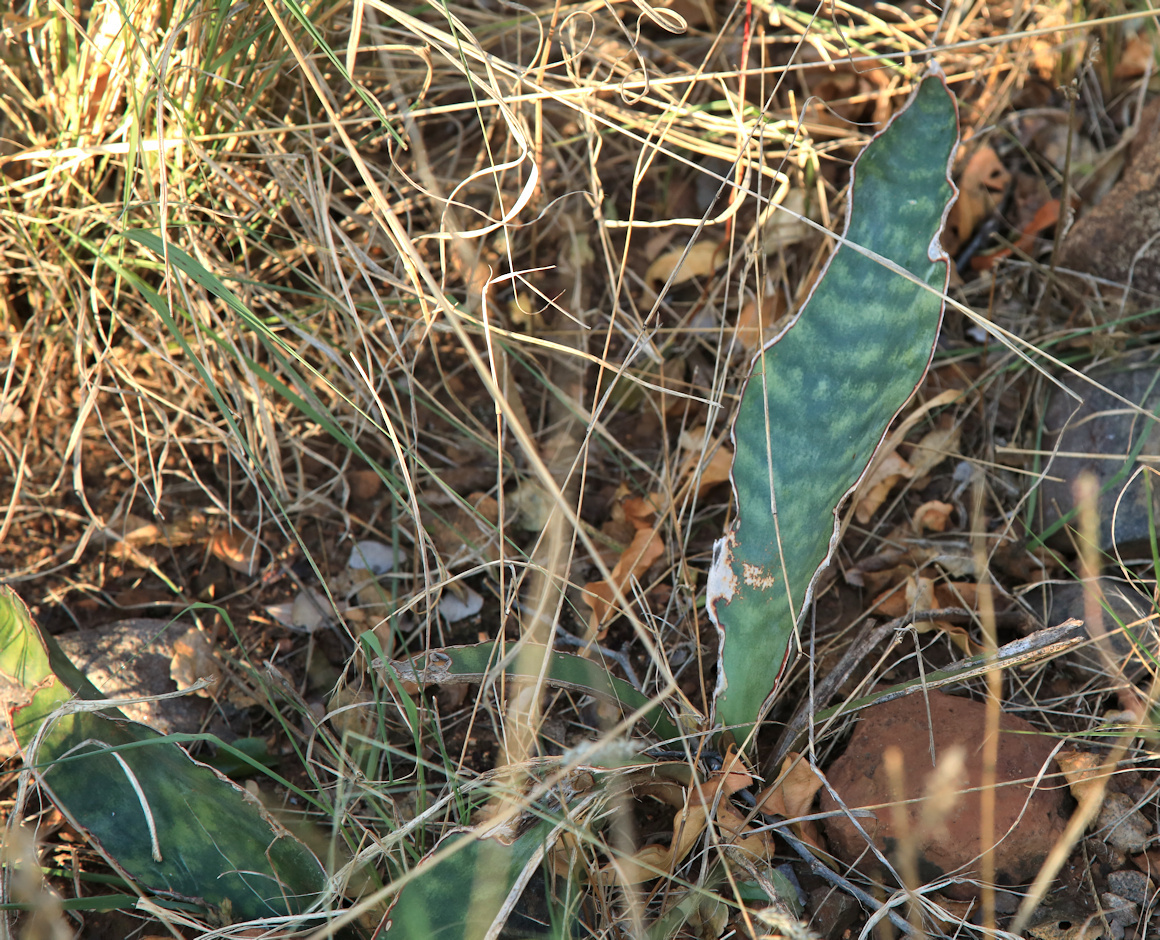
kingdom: Plantae
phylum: Tracheophyta
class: Liliopsida
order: Asparagales
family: Asparagaceae
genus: Dracaena
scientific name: Dracaena hyacinthoides
